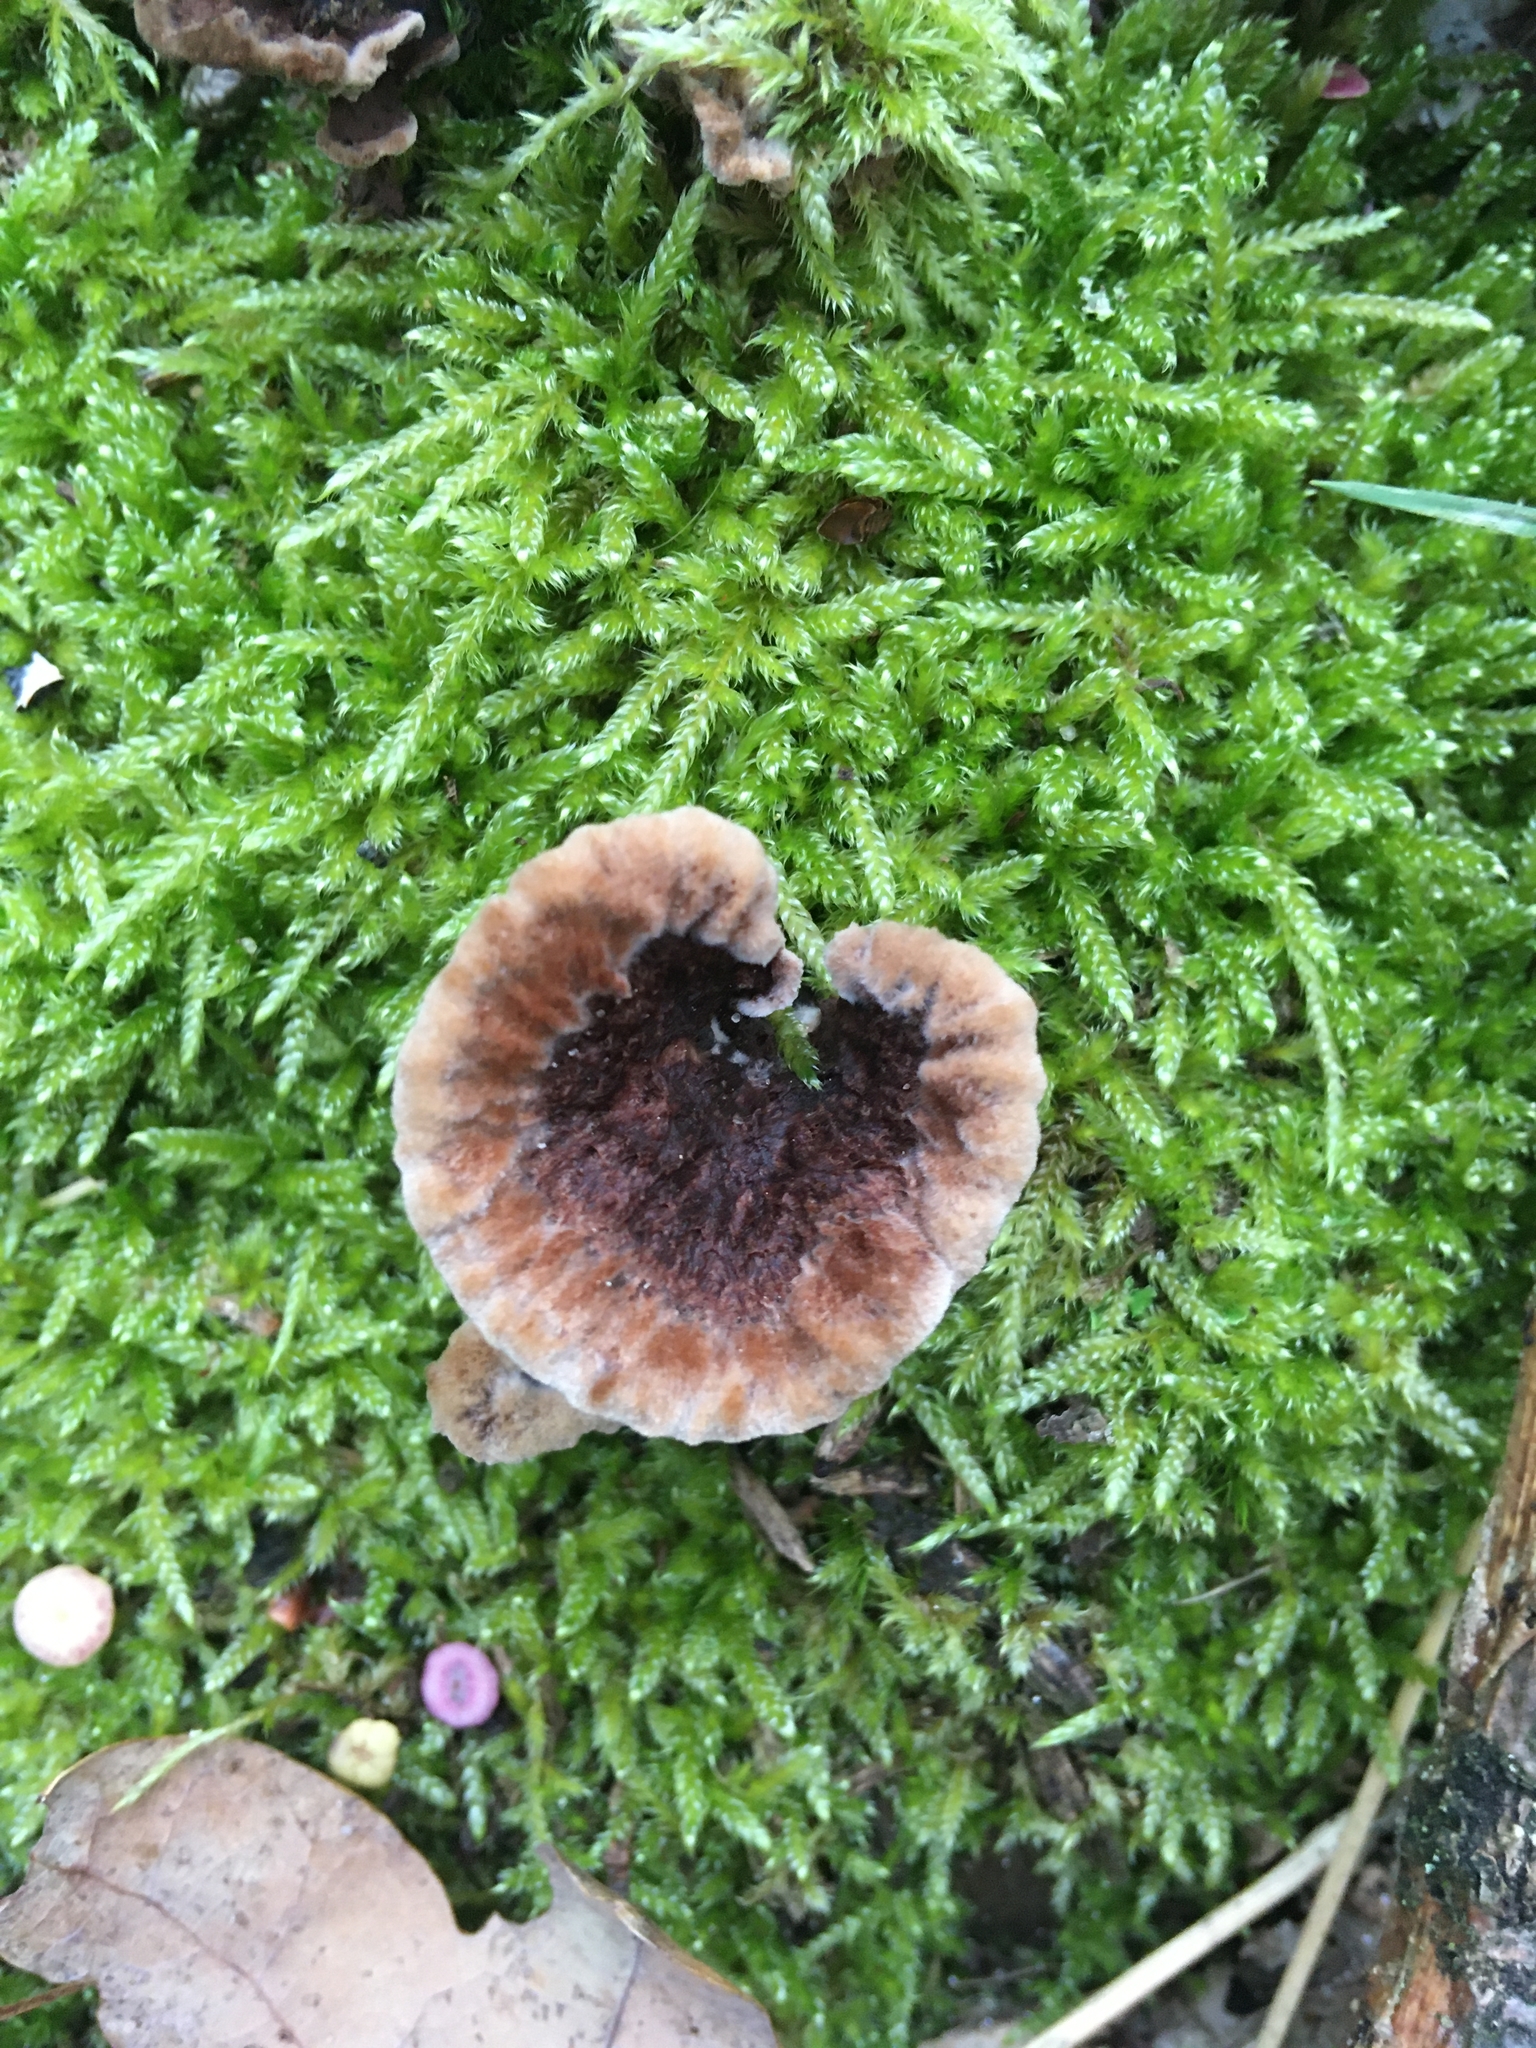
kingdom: Fungi
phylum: Basidiomycota
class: Agaricomycetes
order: Thelephorales
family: Thelephoraceae
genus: Thelephora
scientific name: Thelephora terrestris
